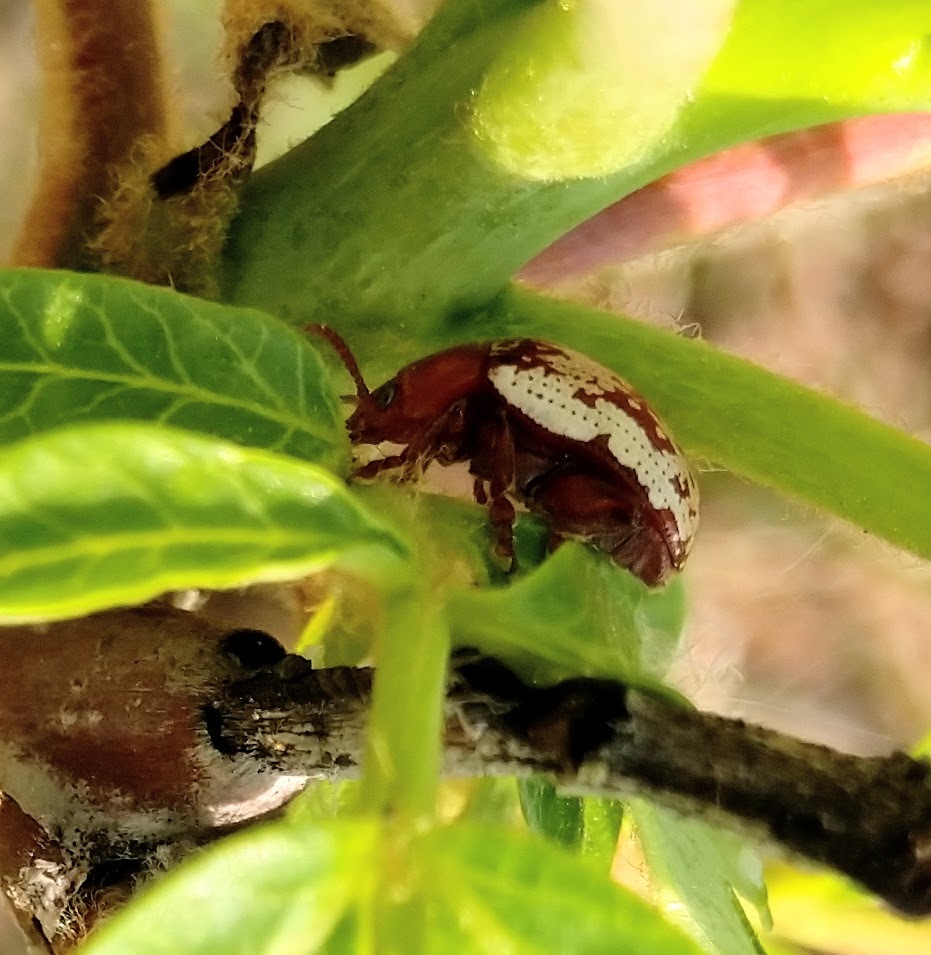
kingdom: Animalia
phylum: Arthropoda
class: Insecta
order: Coleoptera
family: Chrysomelidae
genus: Blepharida
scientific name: Blepharida rhois
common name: Sumac flea beetle
